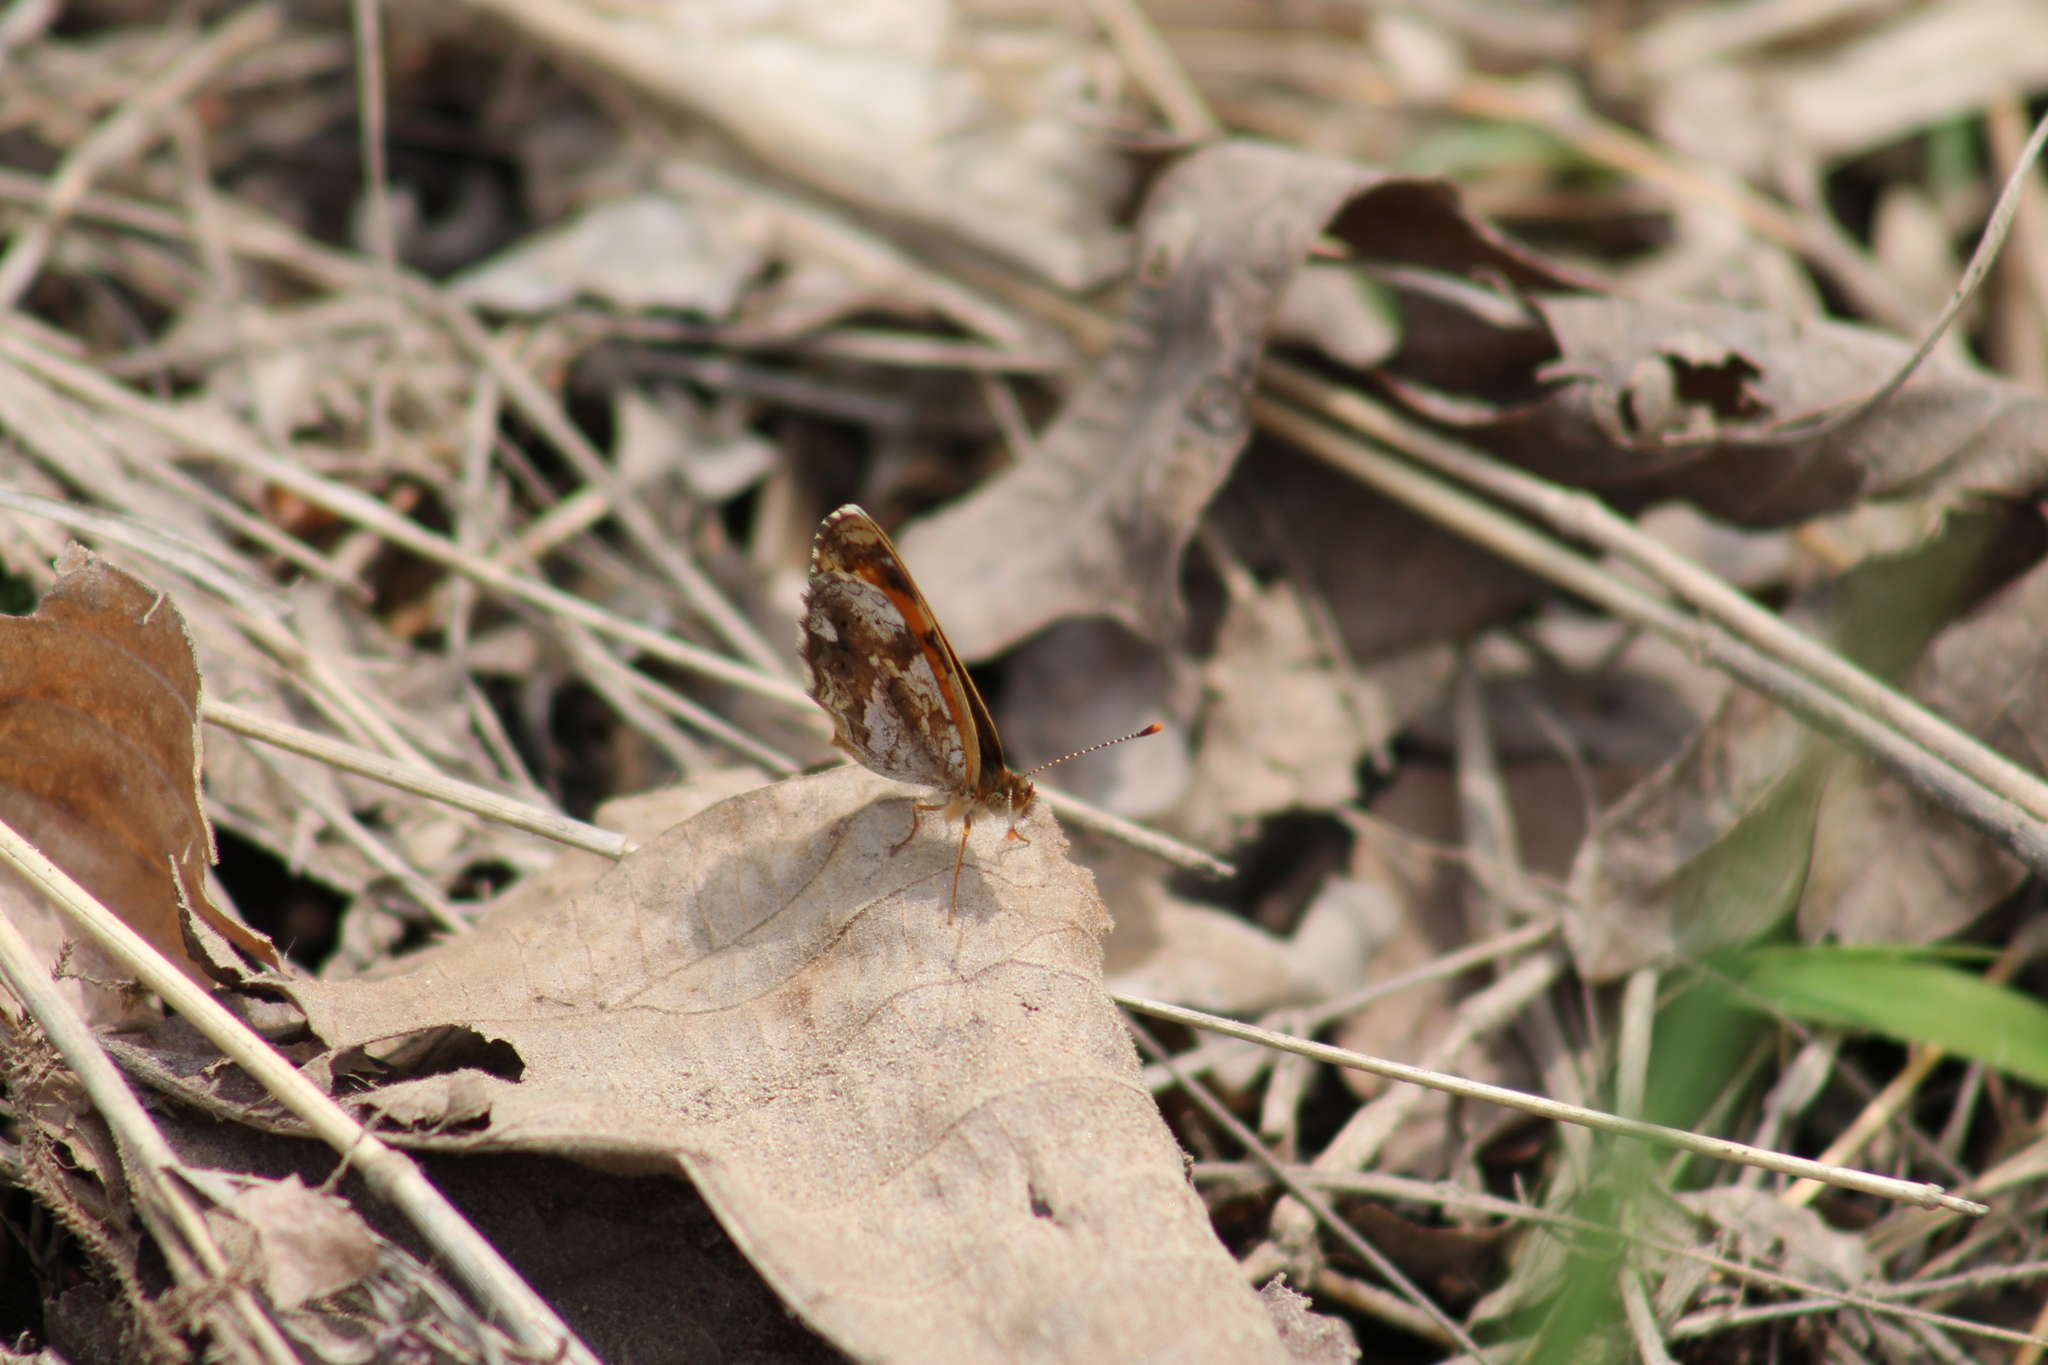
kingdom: Animalia
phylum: Arthropoda
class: Insecta
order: Lepidoptera
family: Nymphalidae
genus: Phyciodes
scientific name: Phyciodes tharos
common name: Pearl crescent
